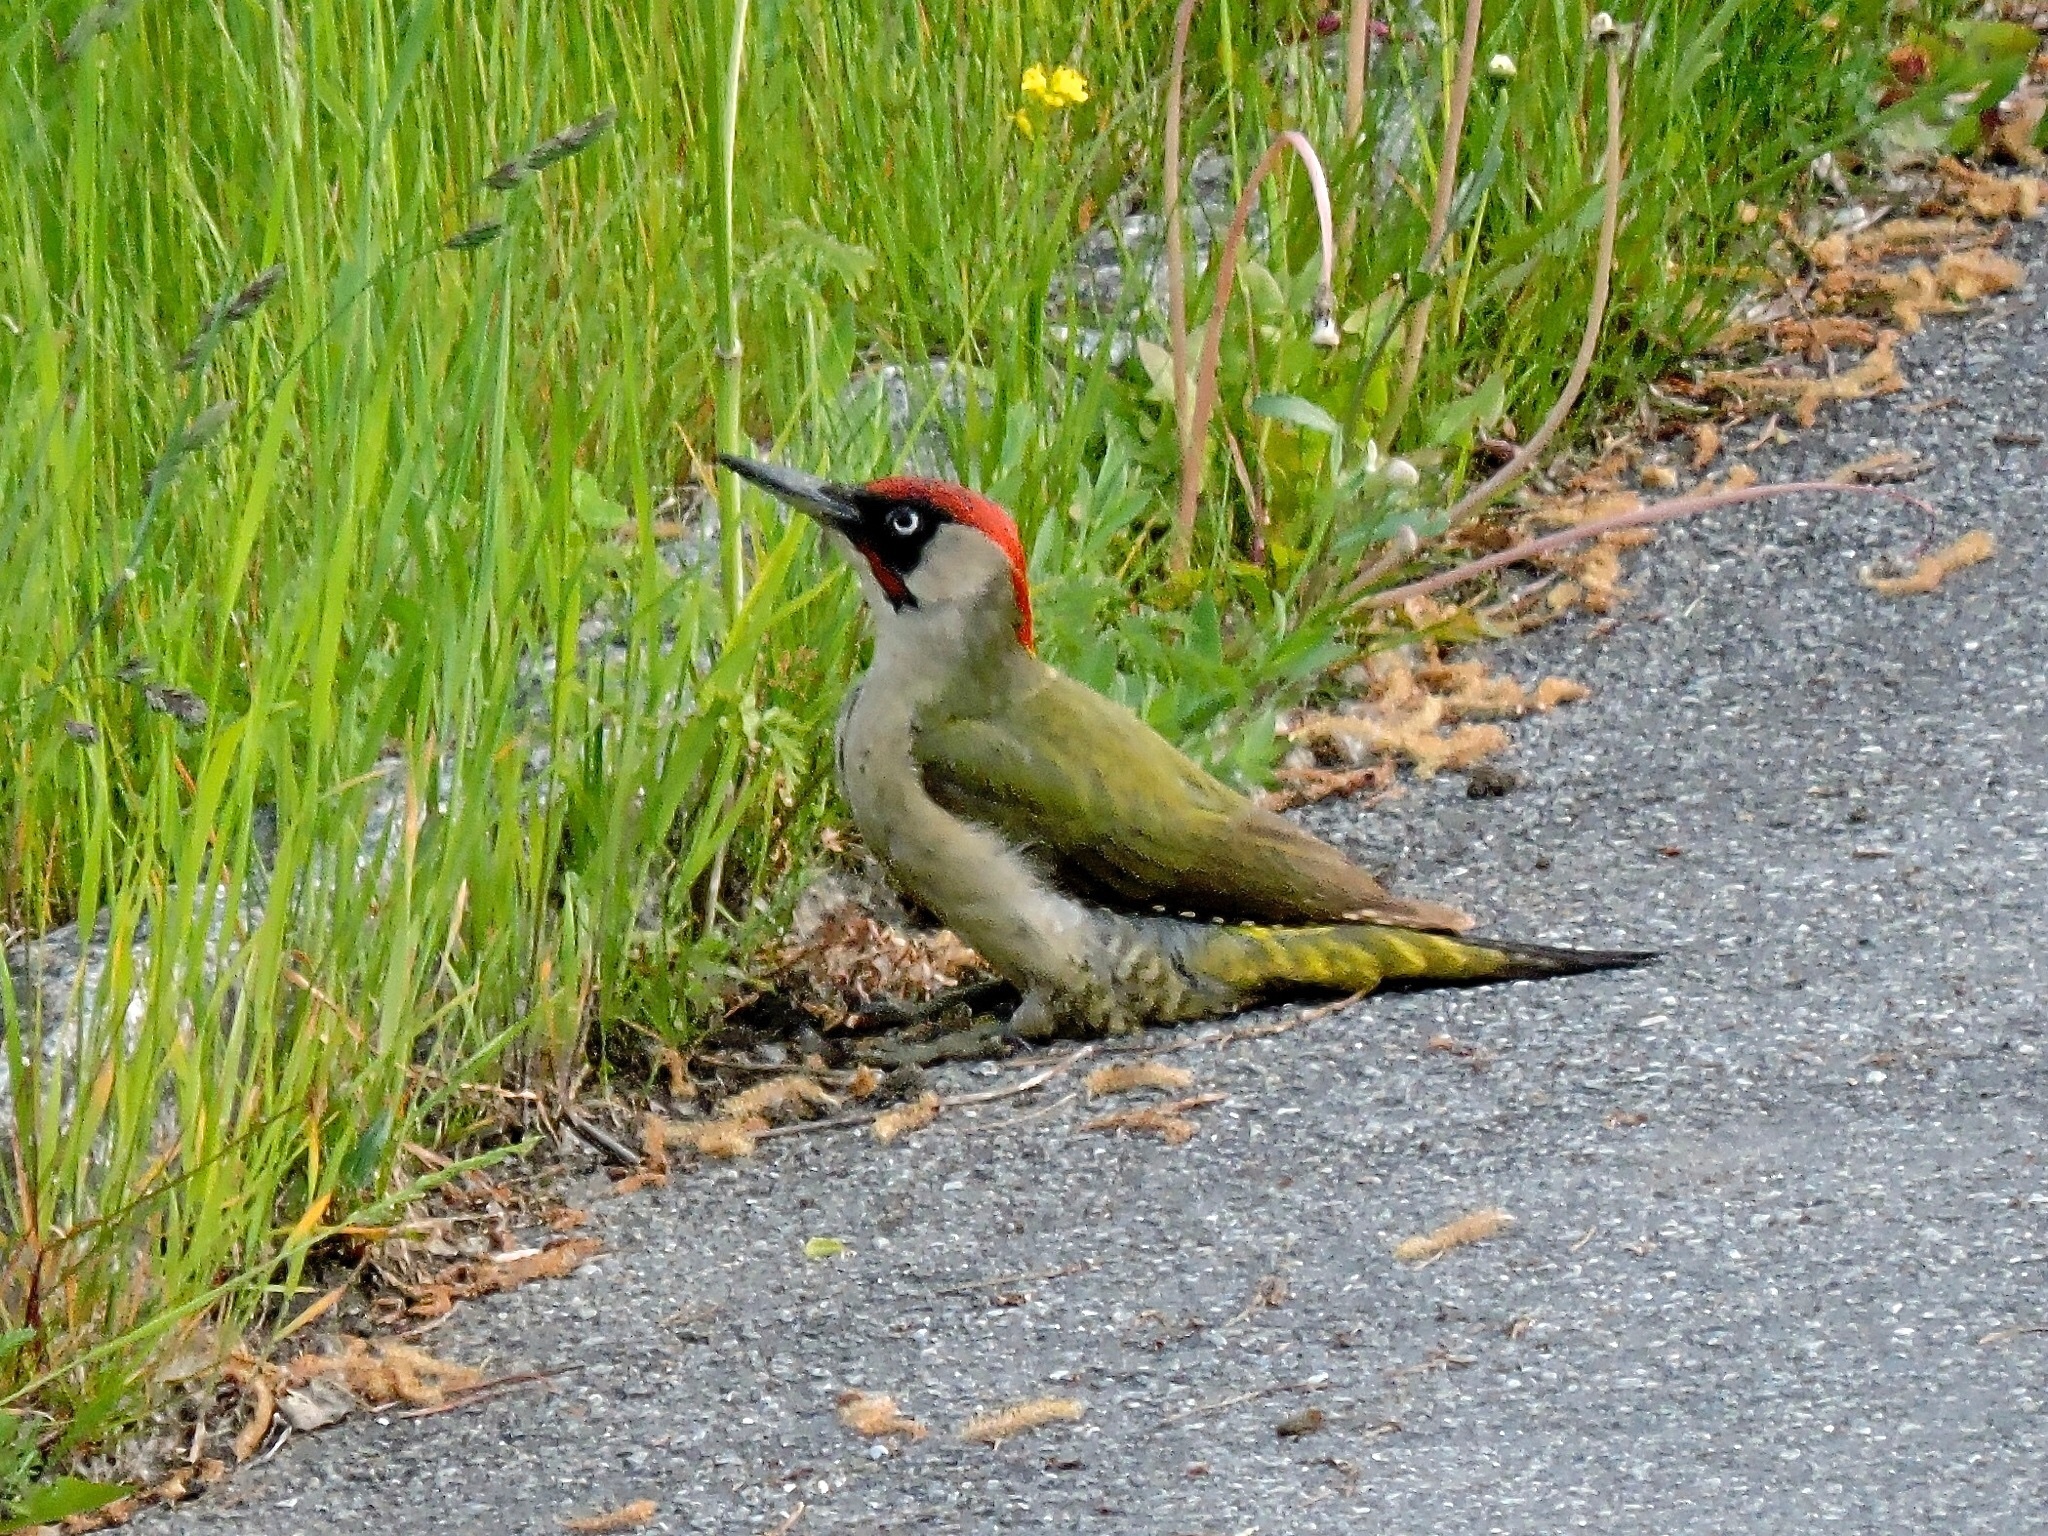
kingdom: Animalia
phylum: Chordata
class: Aves
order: Piciformes
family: Picidae
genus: Picus
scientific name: Picus viridis
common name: European green woodpecker
